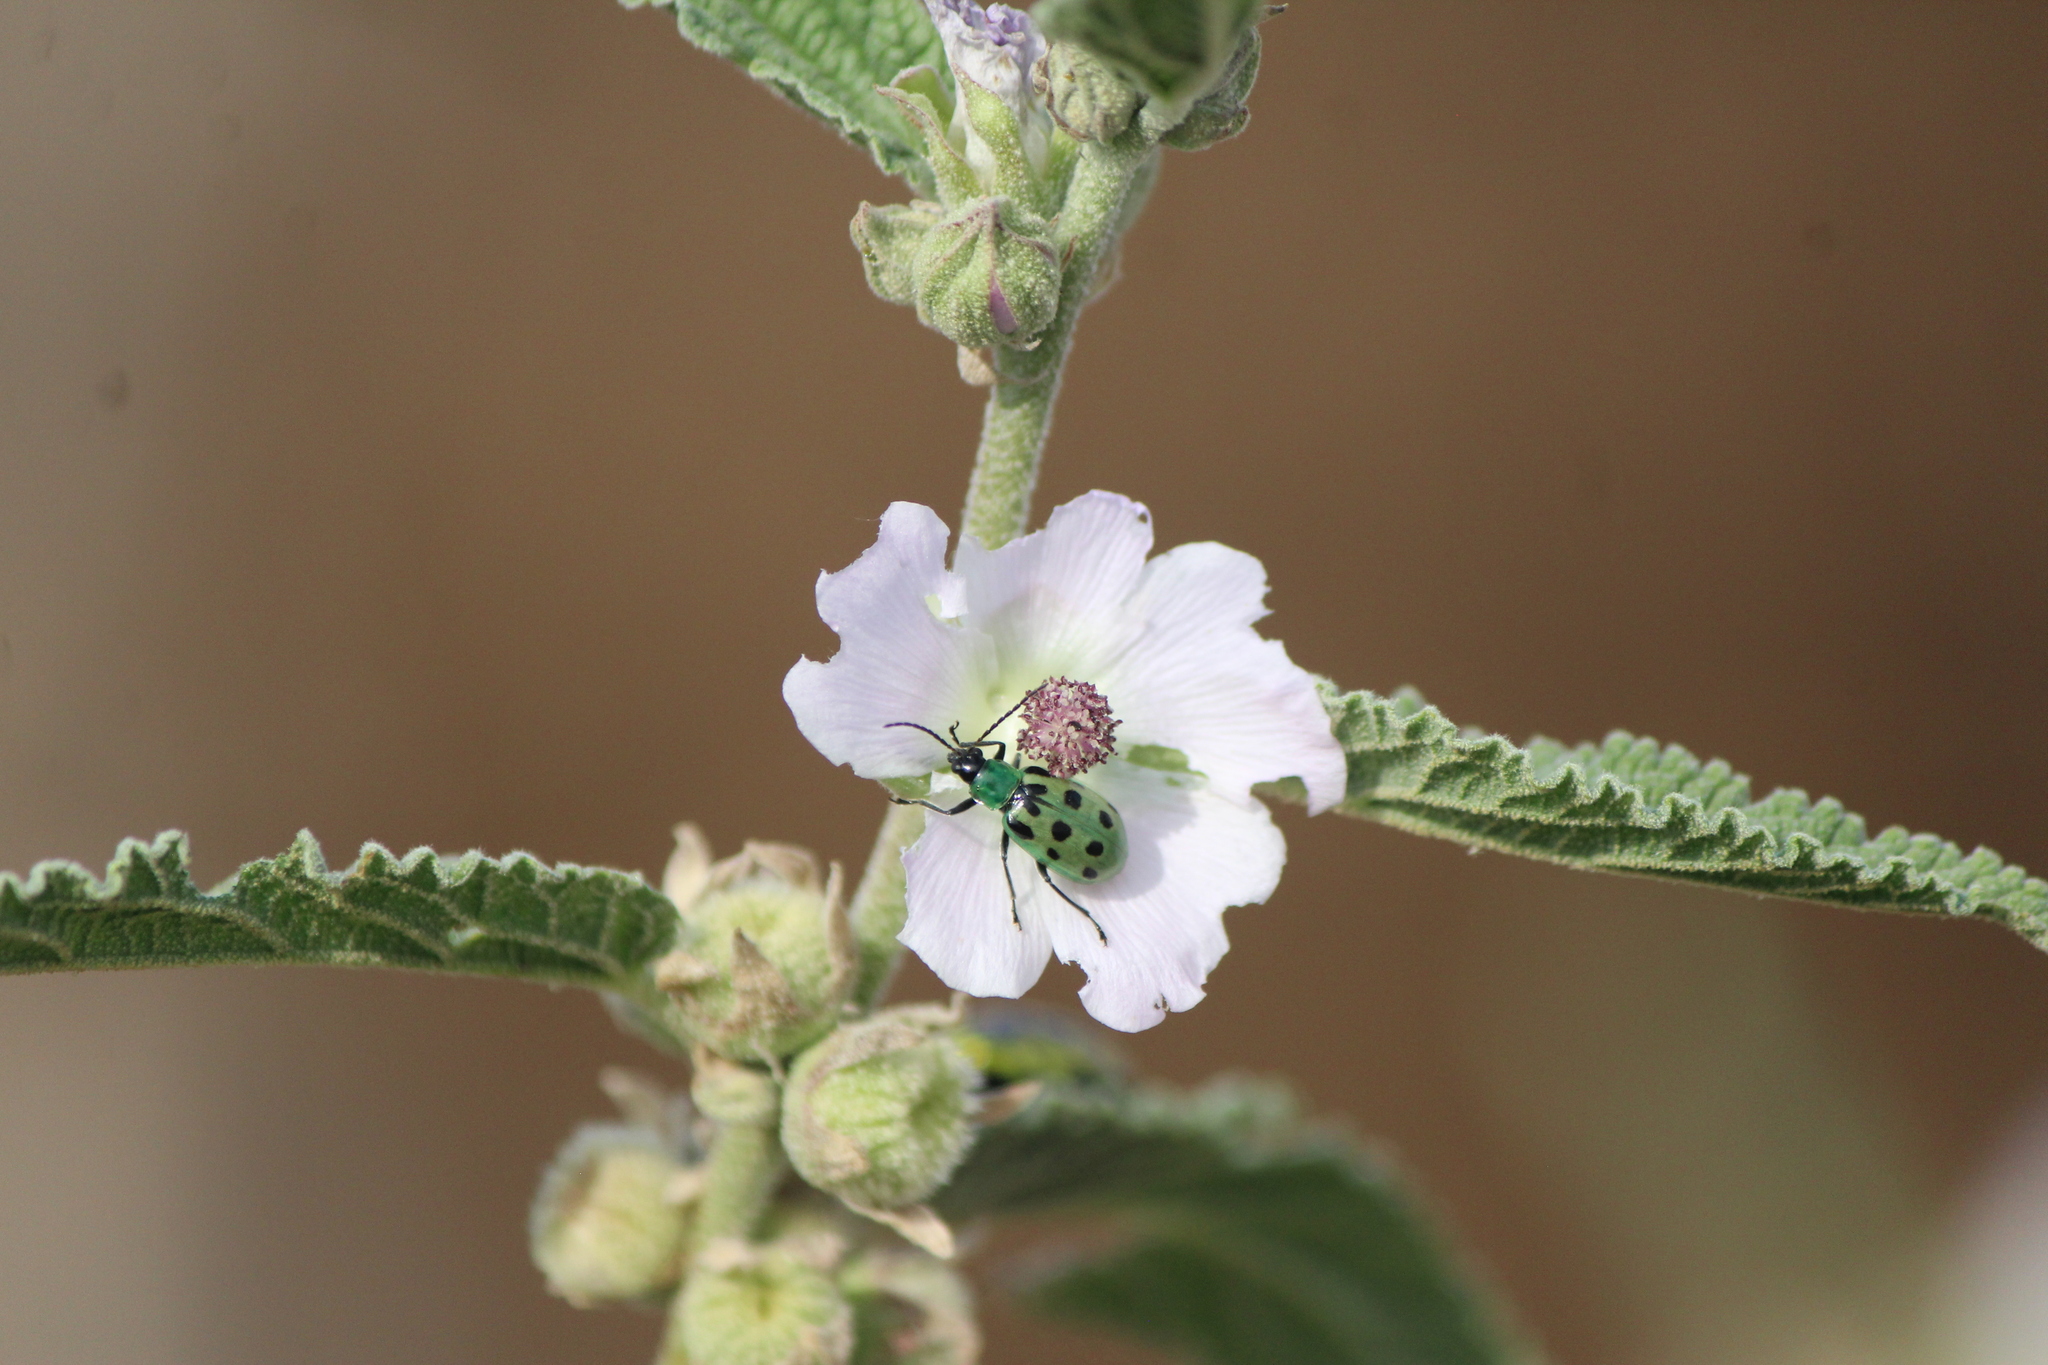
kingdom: Animalia
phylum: Arthropoda
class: Insecta
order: Coleoptera
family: Chrysomelidae
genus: Diabrotica
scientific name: Diabrotica undecimpunctata
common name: Spotted cucumber beetle
